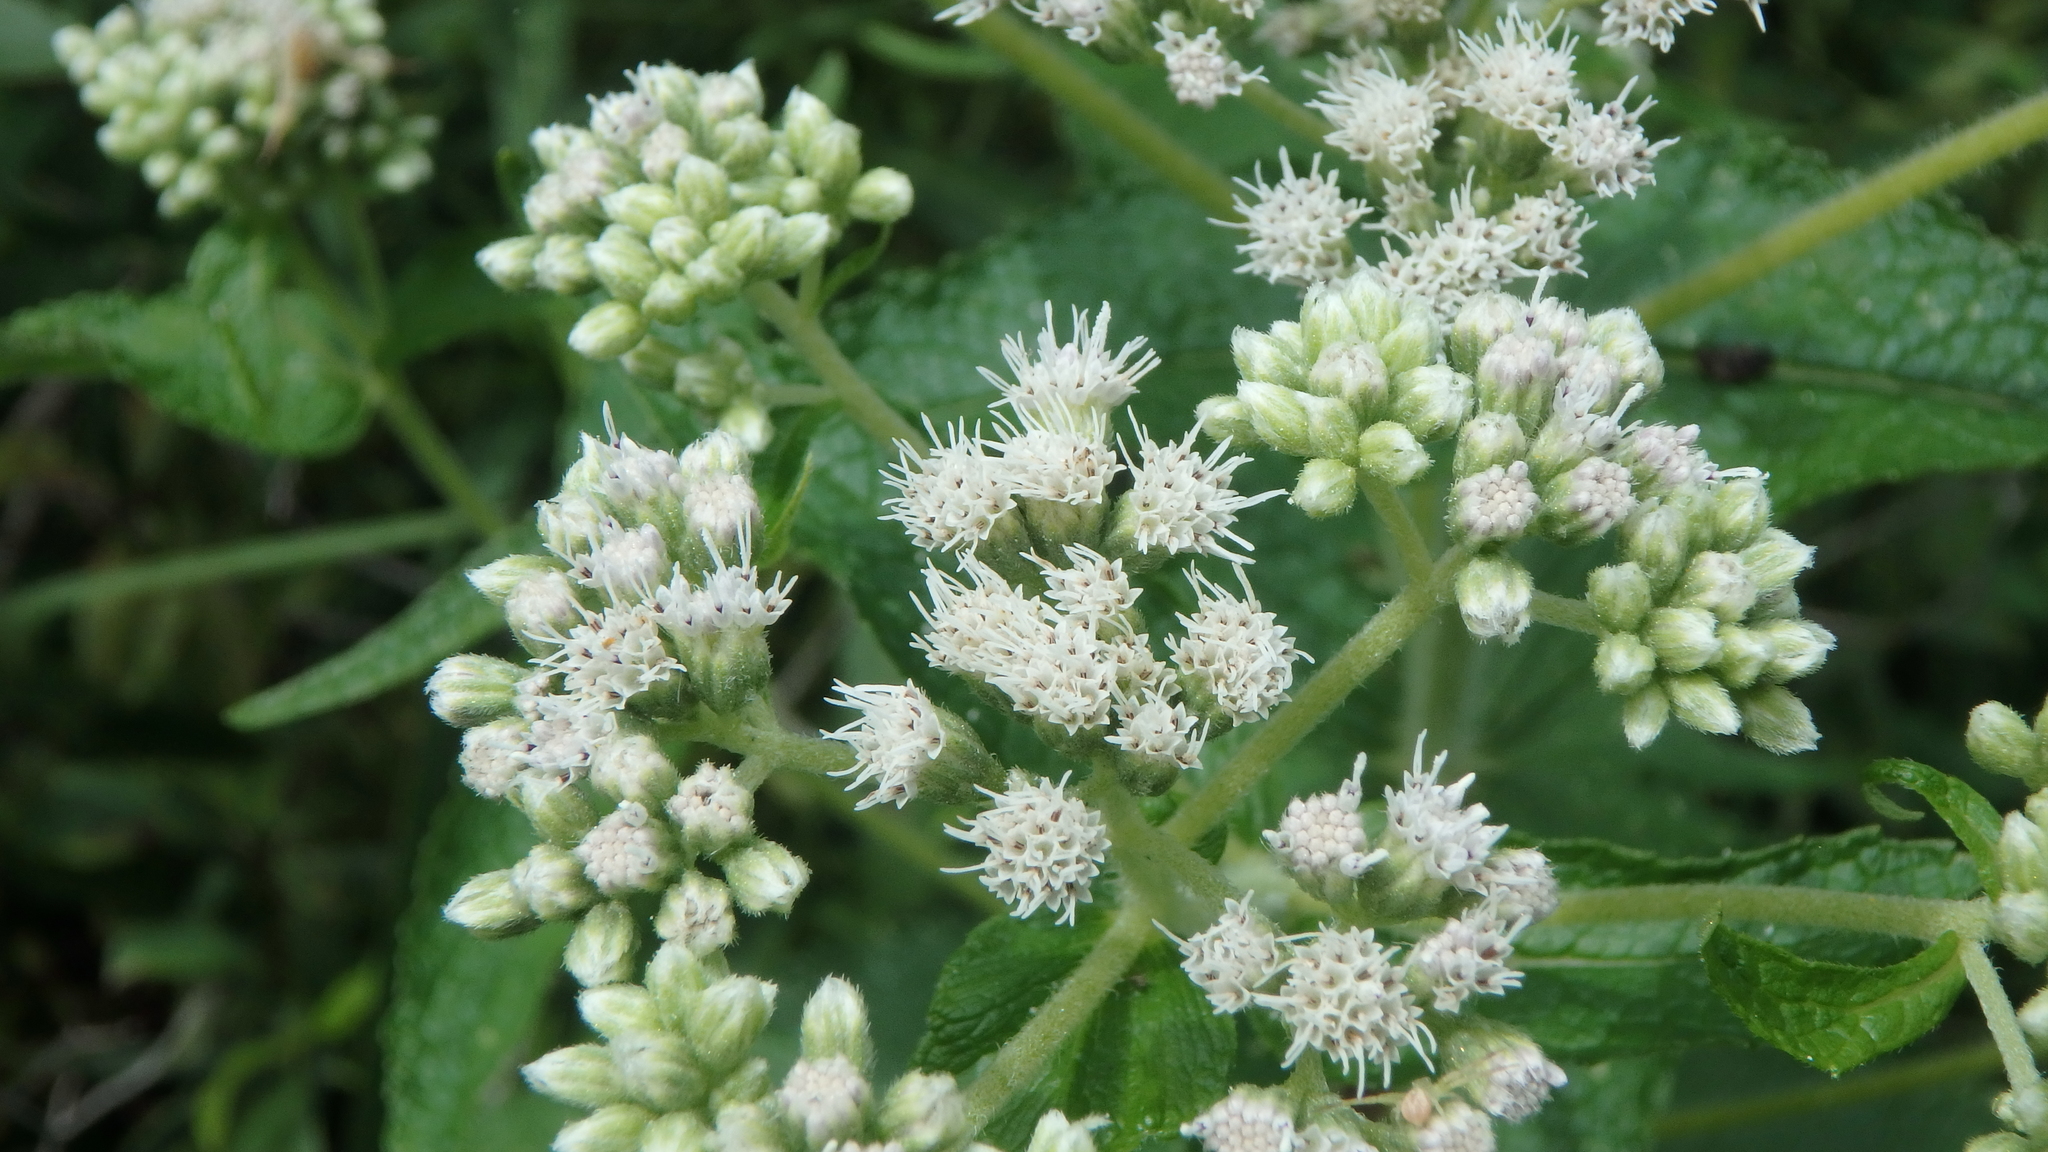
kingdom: Plantae
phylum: Tracheophyta
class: Magnoliopsida
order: Asterales
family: Asteraceae
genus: Eupatorium
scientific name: Eupatorium perfoliatum
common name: Boneset
